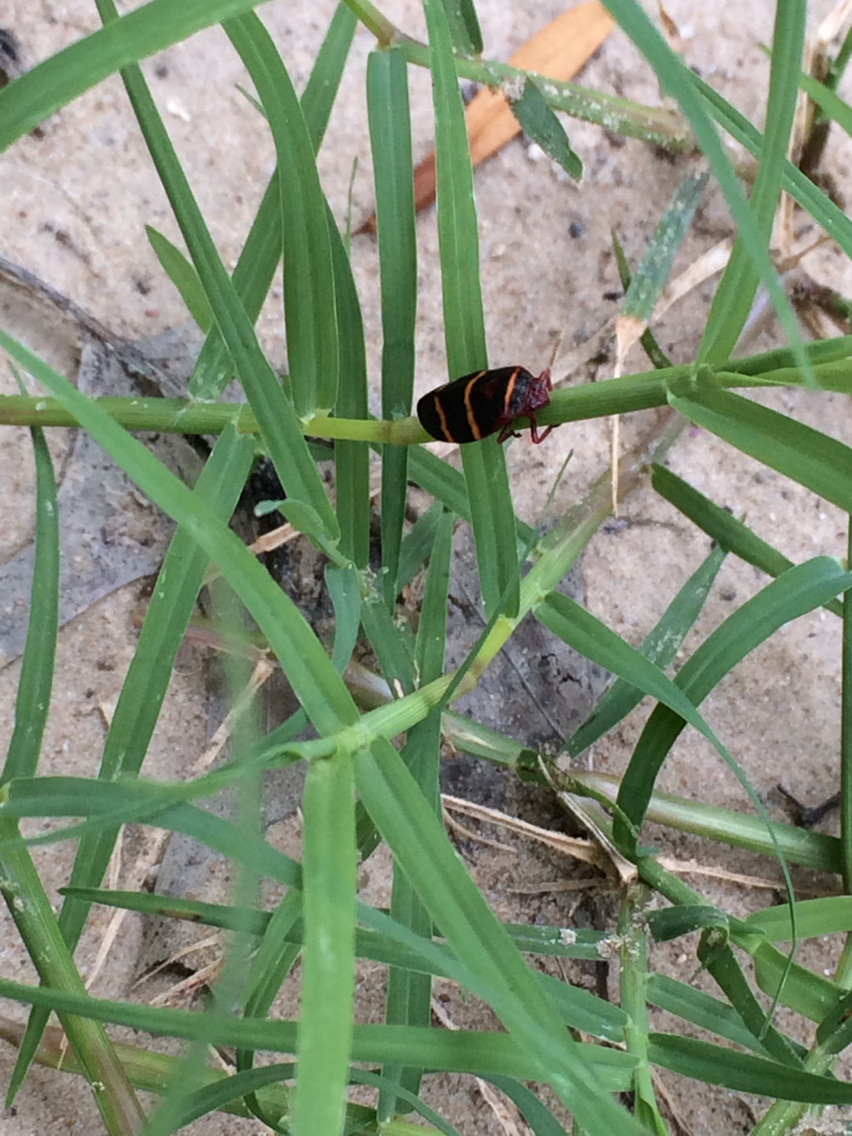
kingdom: Animalia
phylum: Arthropoda
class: Insecta
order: Hemiptera
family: Cercopidae
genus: Prosapia
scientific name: Prosapia bicincta
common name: Twolined spittlebug
